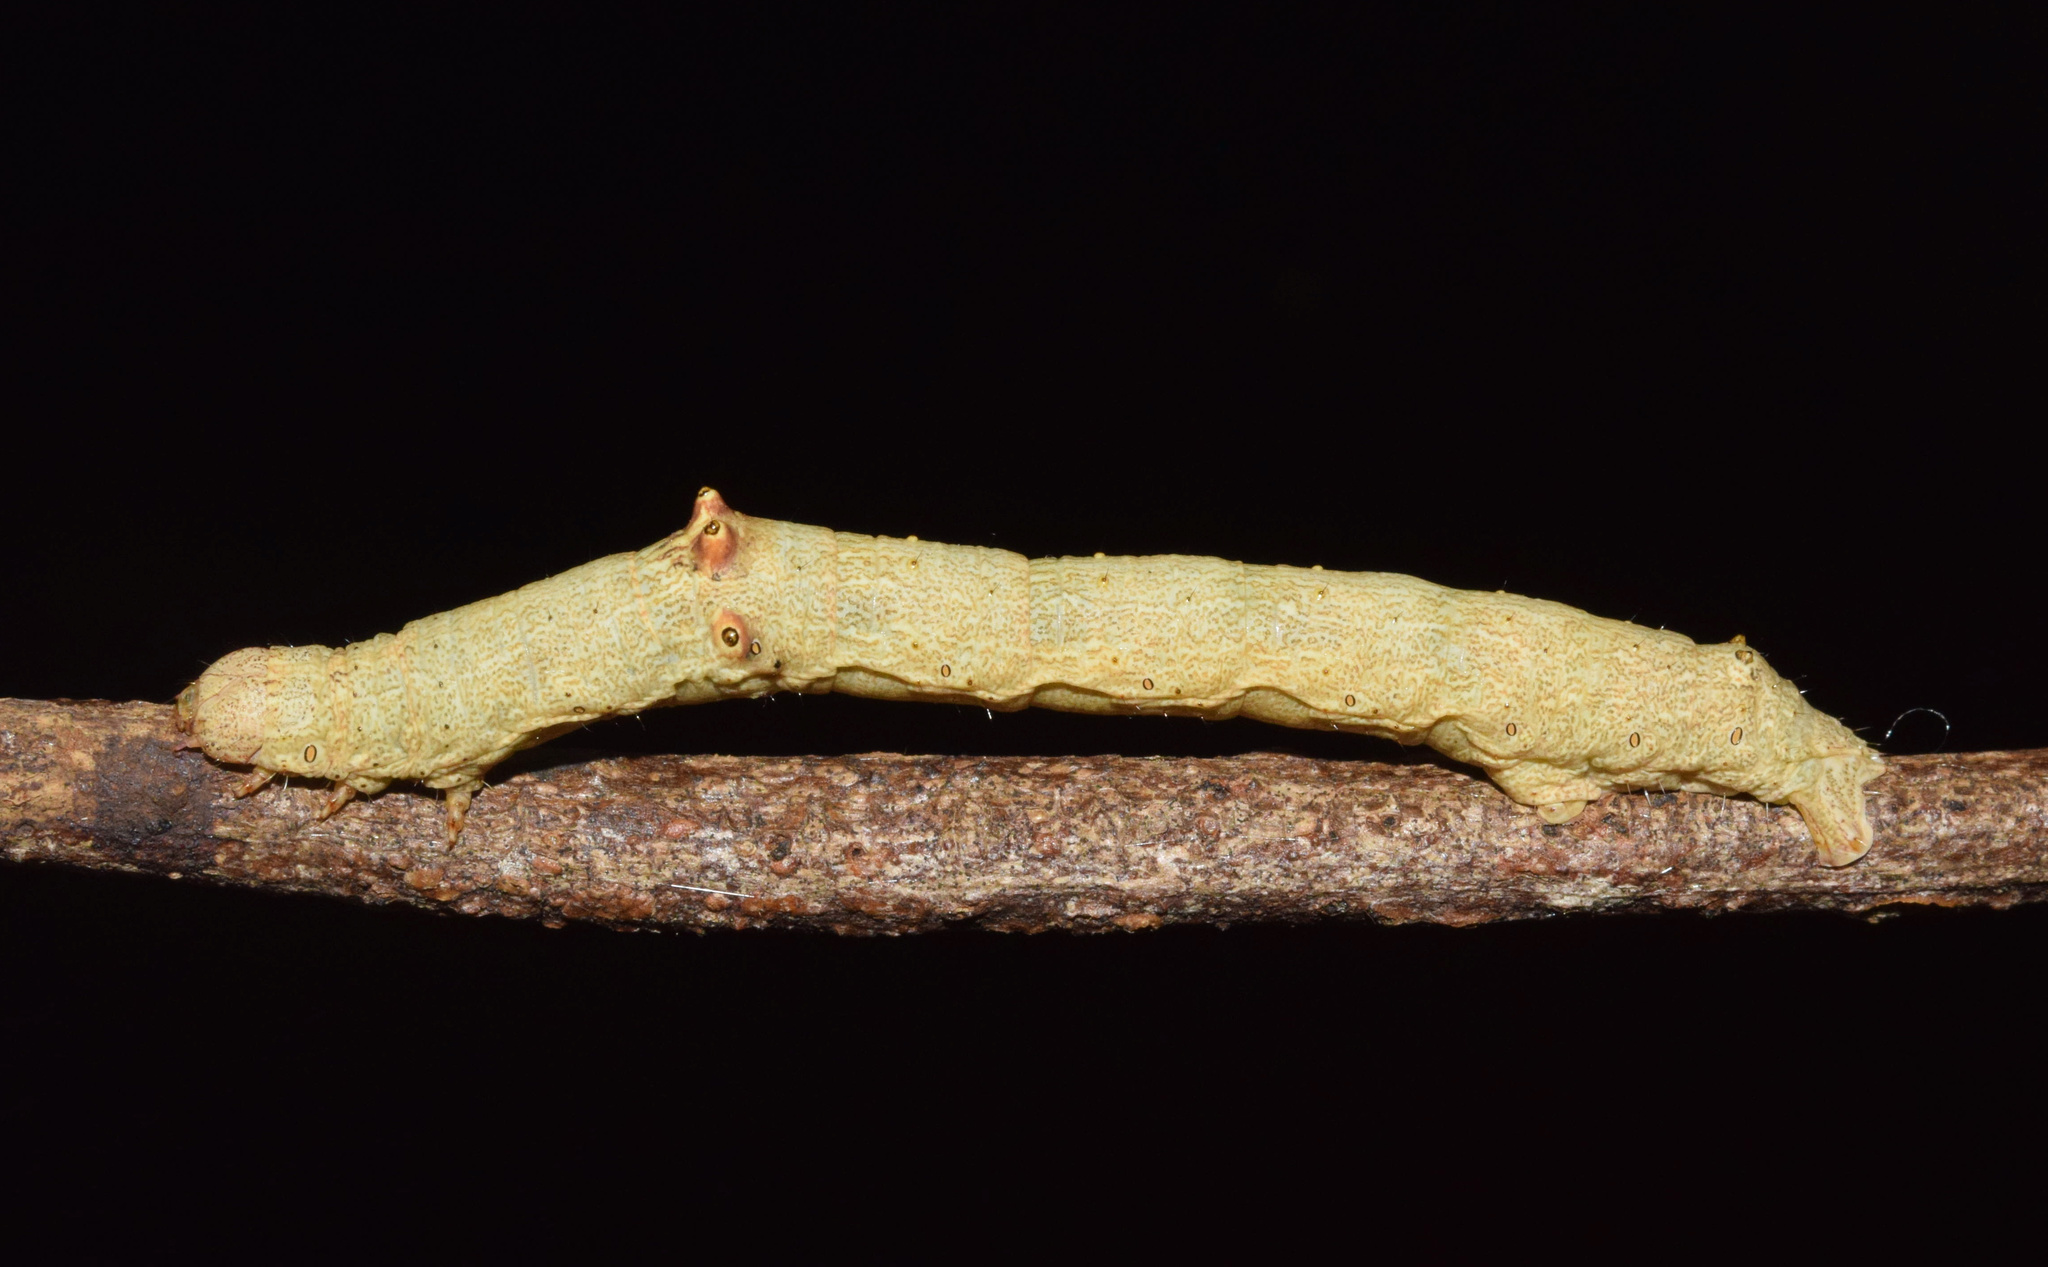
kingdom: Animalia
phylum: Arthropoda
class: Insecta
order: Lepidoptera
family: Geometridae
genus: Ascotis
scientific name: Ascotis reciprocaria
